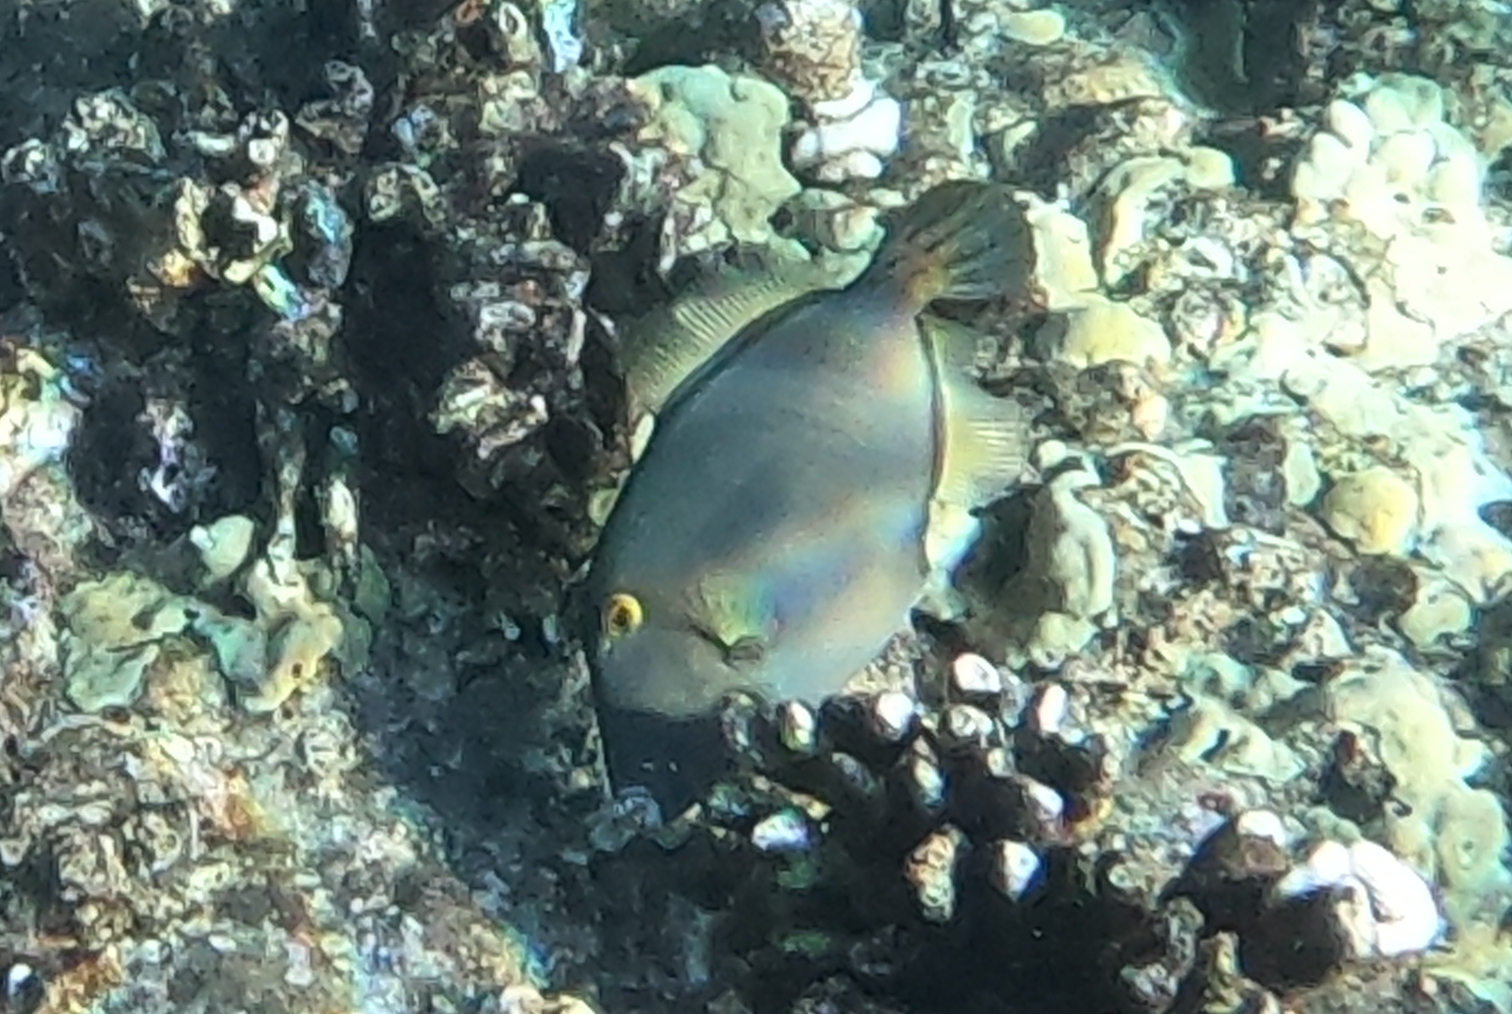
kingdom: Animalia
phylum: Chordata
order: Tetraodontiformes
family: Monacanthidae
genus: Cantherhines
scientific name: Cantherhines dumerilii
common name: Barred filefish
